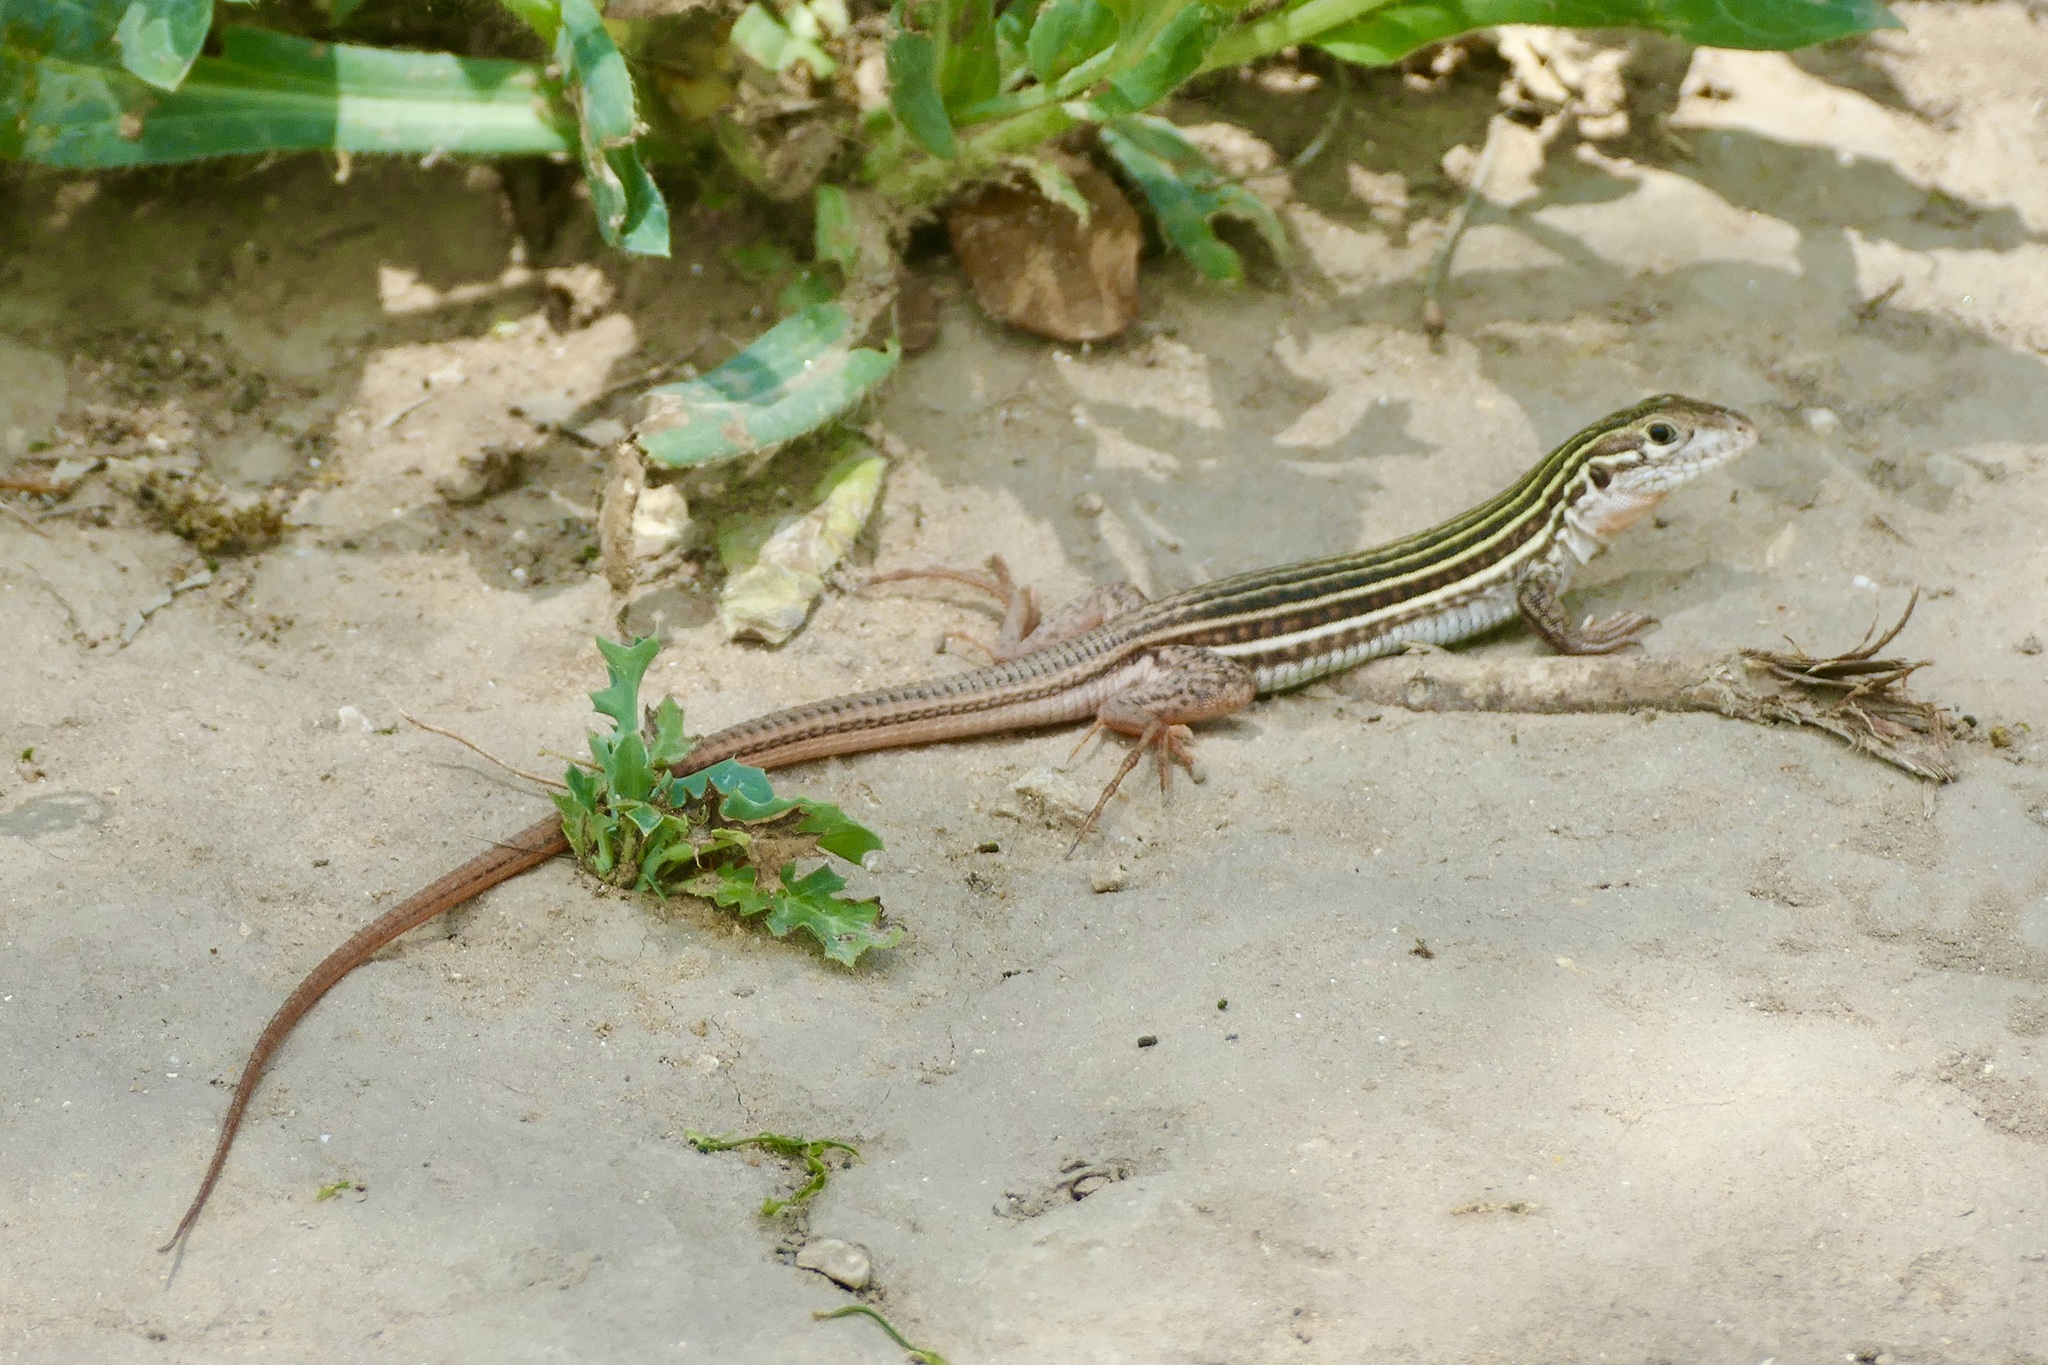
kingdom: Animalia
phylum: Chordata
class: Squamata
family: Teiidae
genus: Aspidoscelis
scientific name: Aspidoscelis gularis
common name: Eastern spotted whiptail
